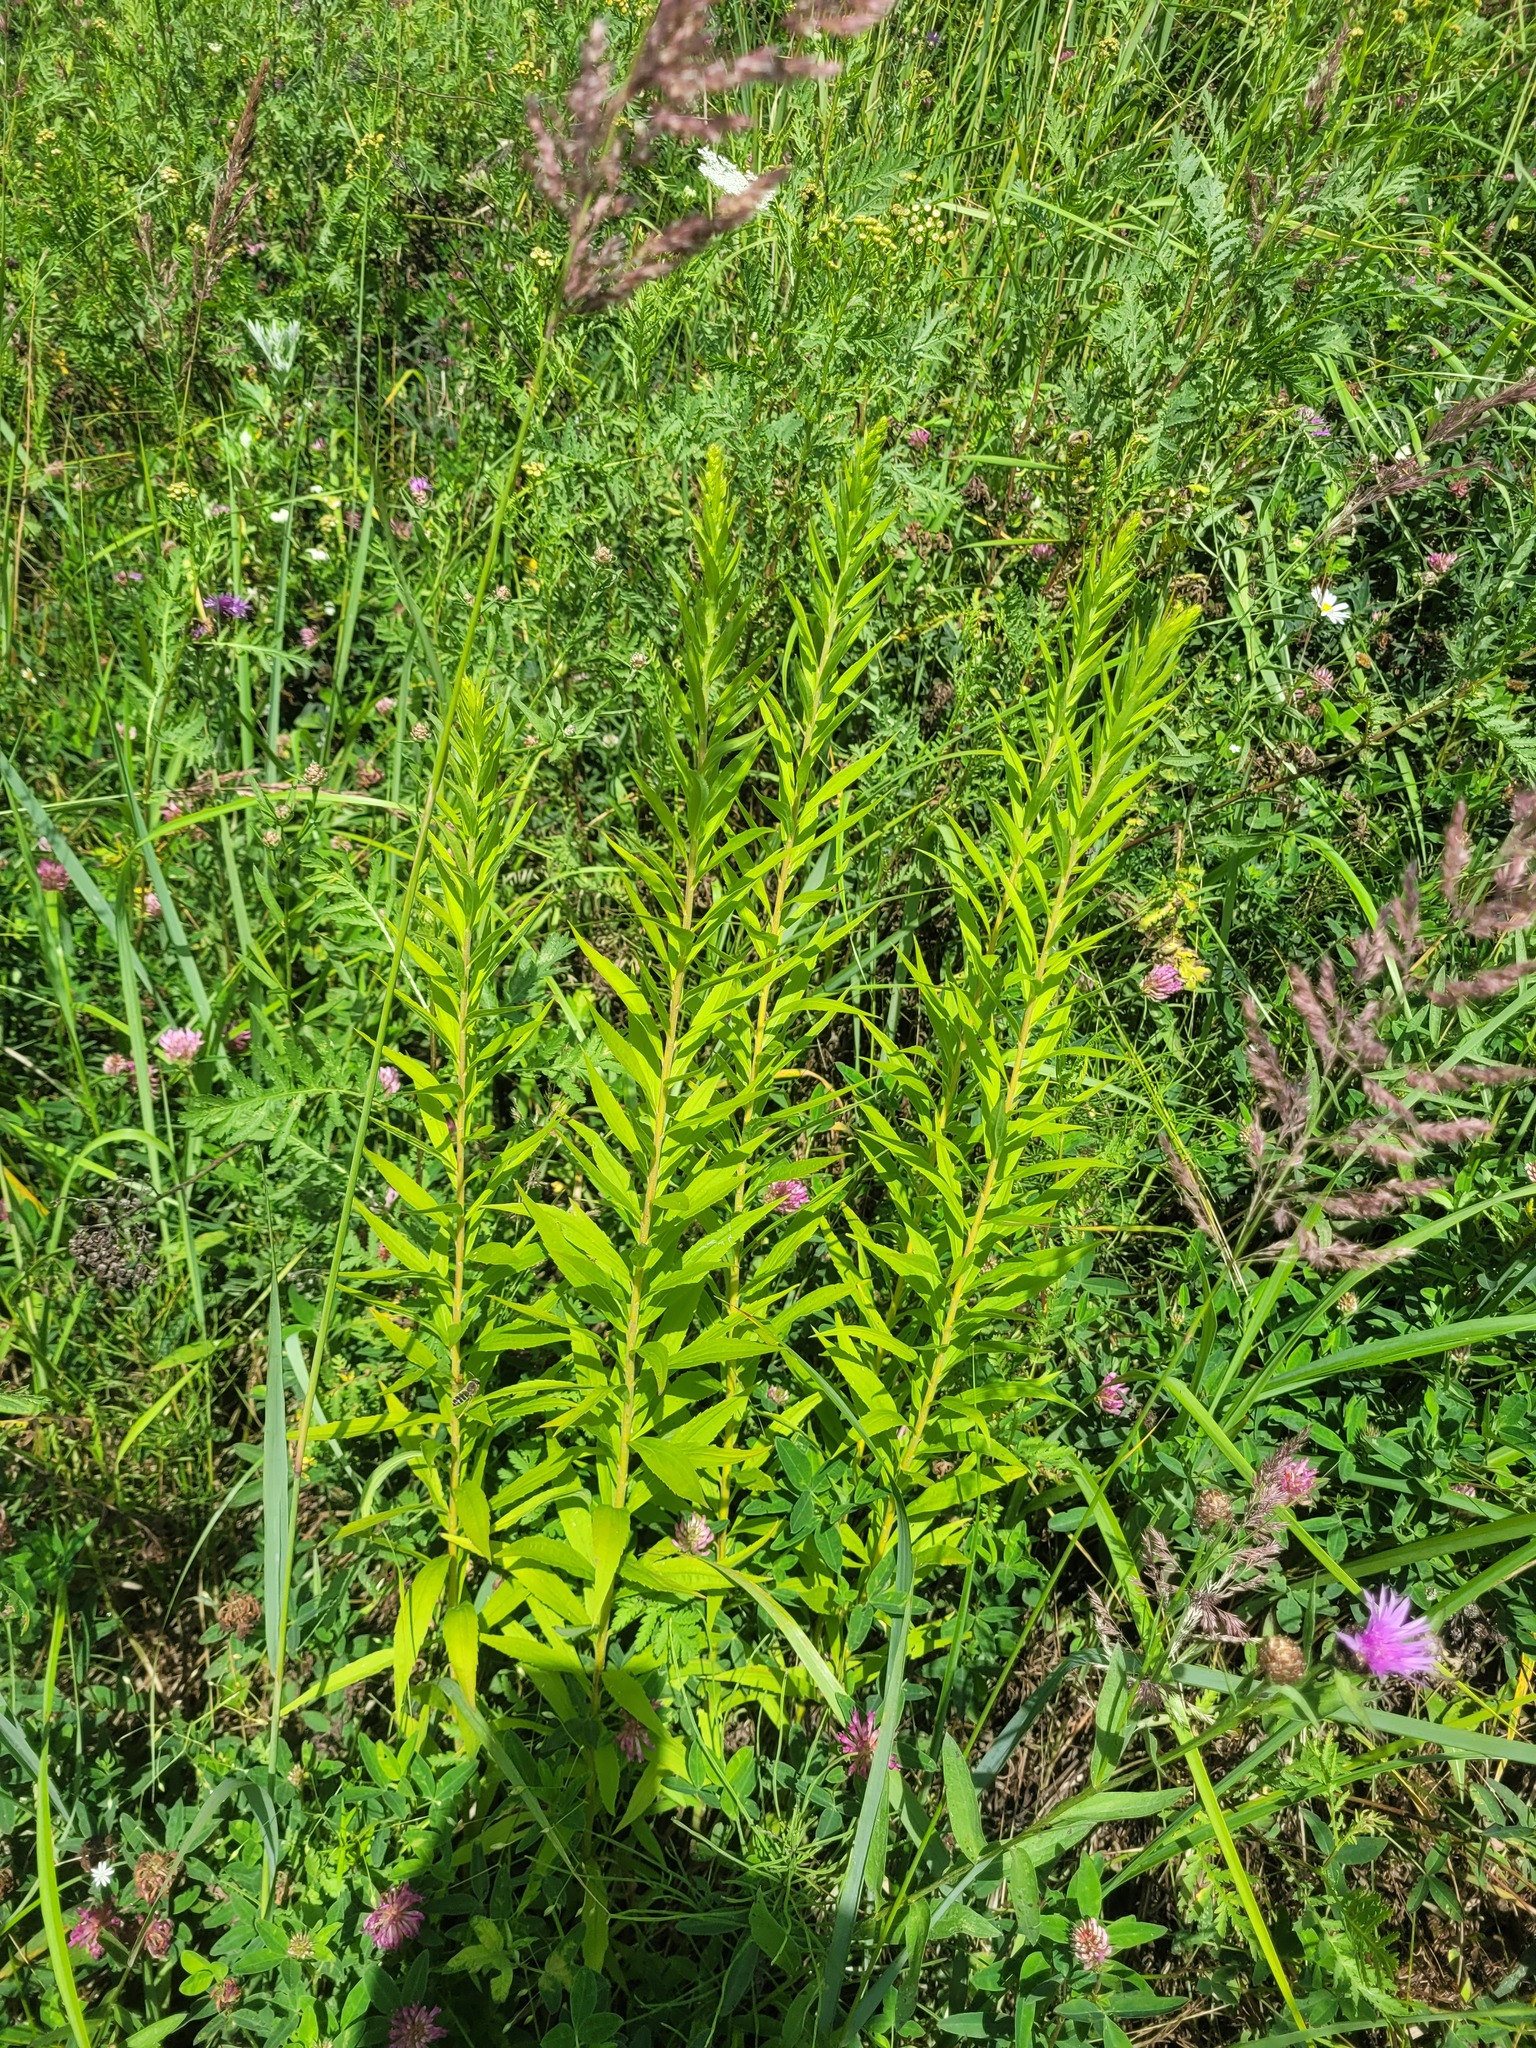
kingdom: Plantae
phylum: Tracheophyta
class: Magnoliopsida
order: Asterales
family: Asteraceae
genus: Solidago
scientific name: Solidago canadensis
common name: Canada goldenrod
